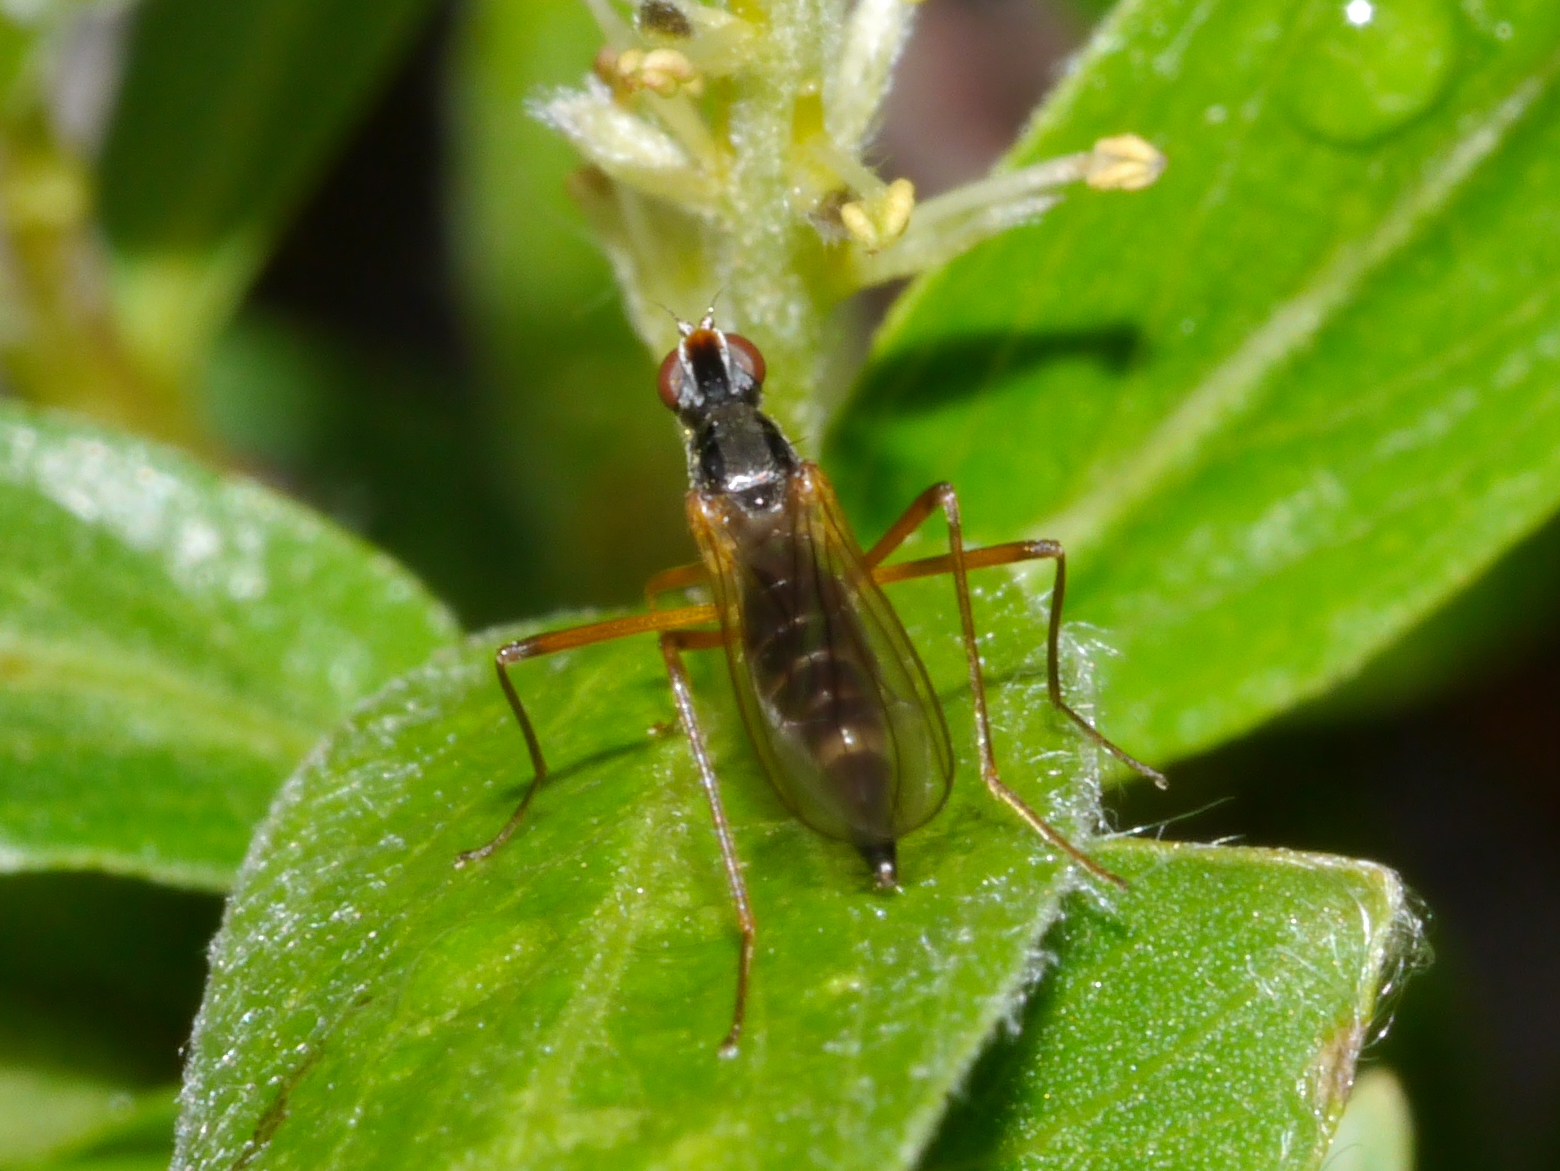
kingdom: Animalia
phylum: Arthropoda
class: Insecta
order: Diptera
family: Micropezidae
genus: Compsobata
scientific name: Compsobata kennicotti
